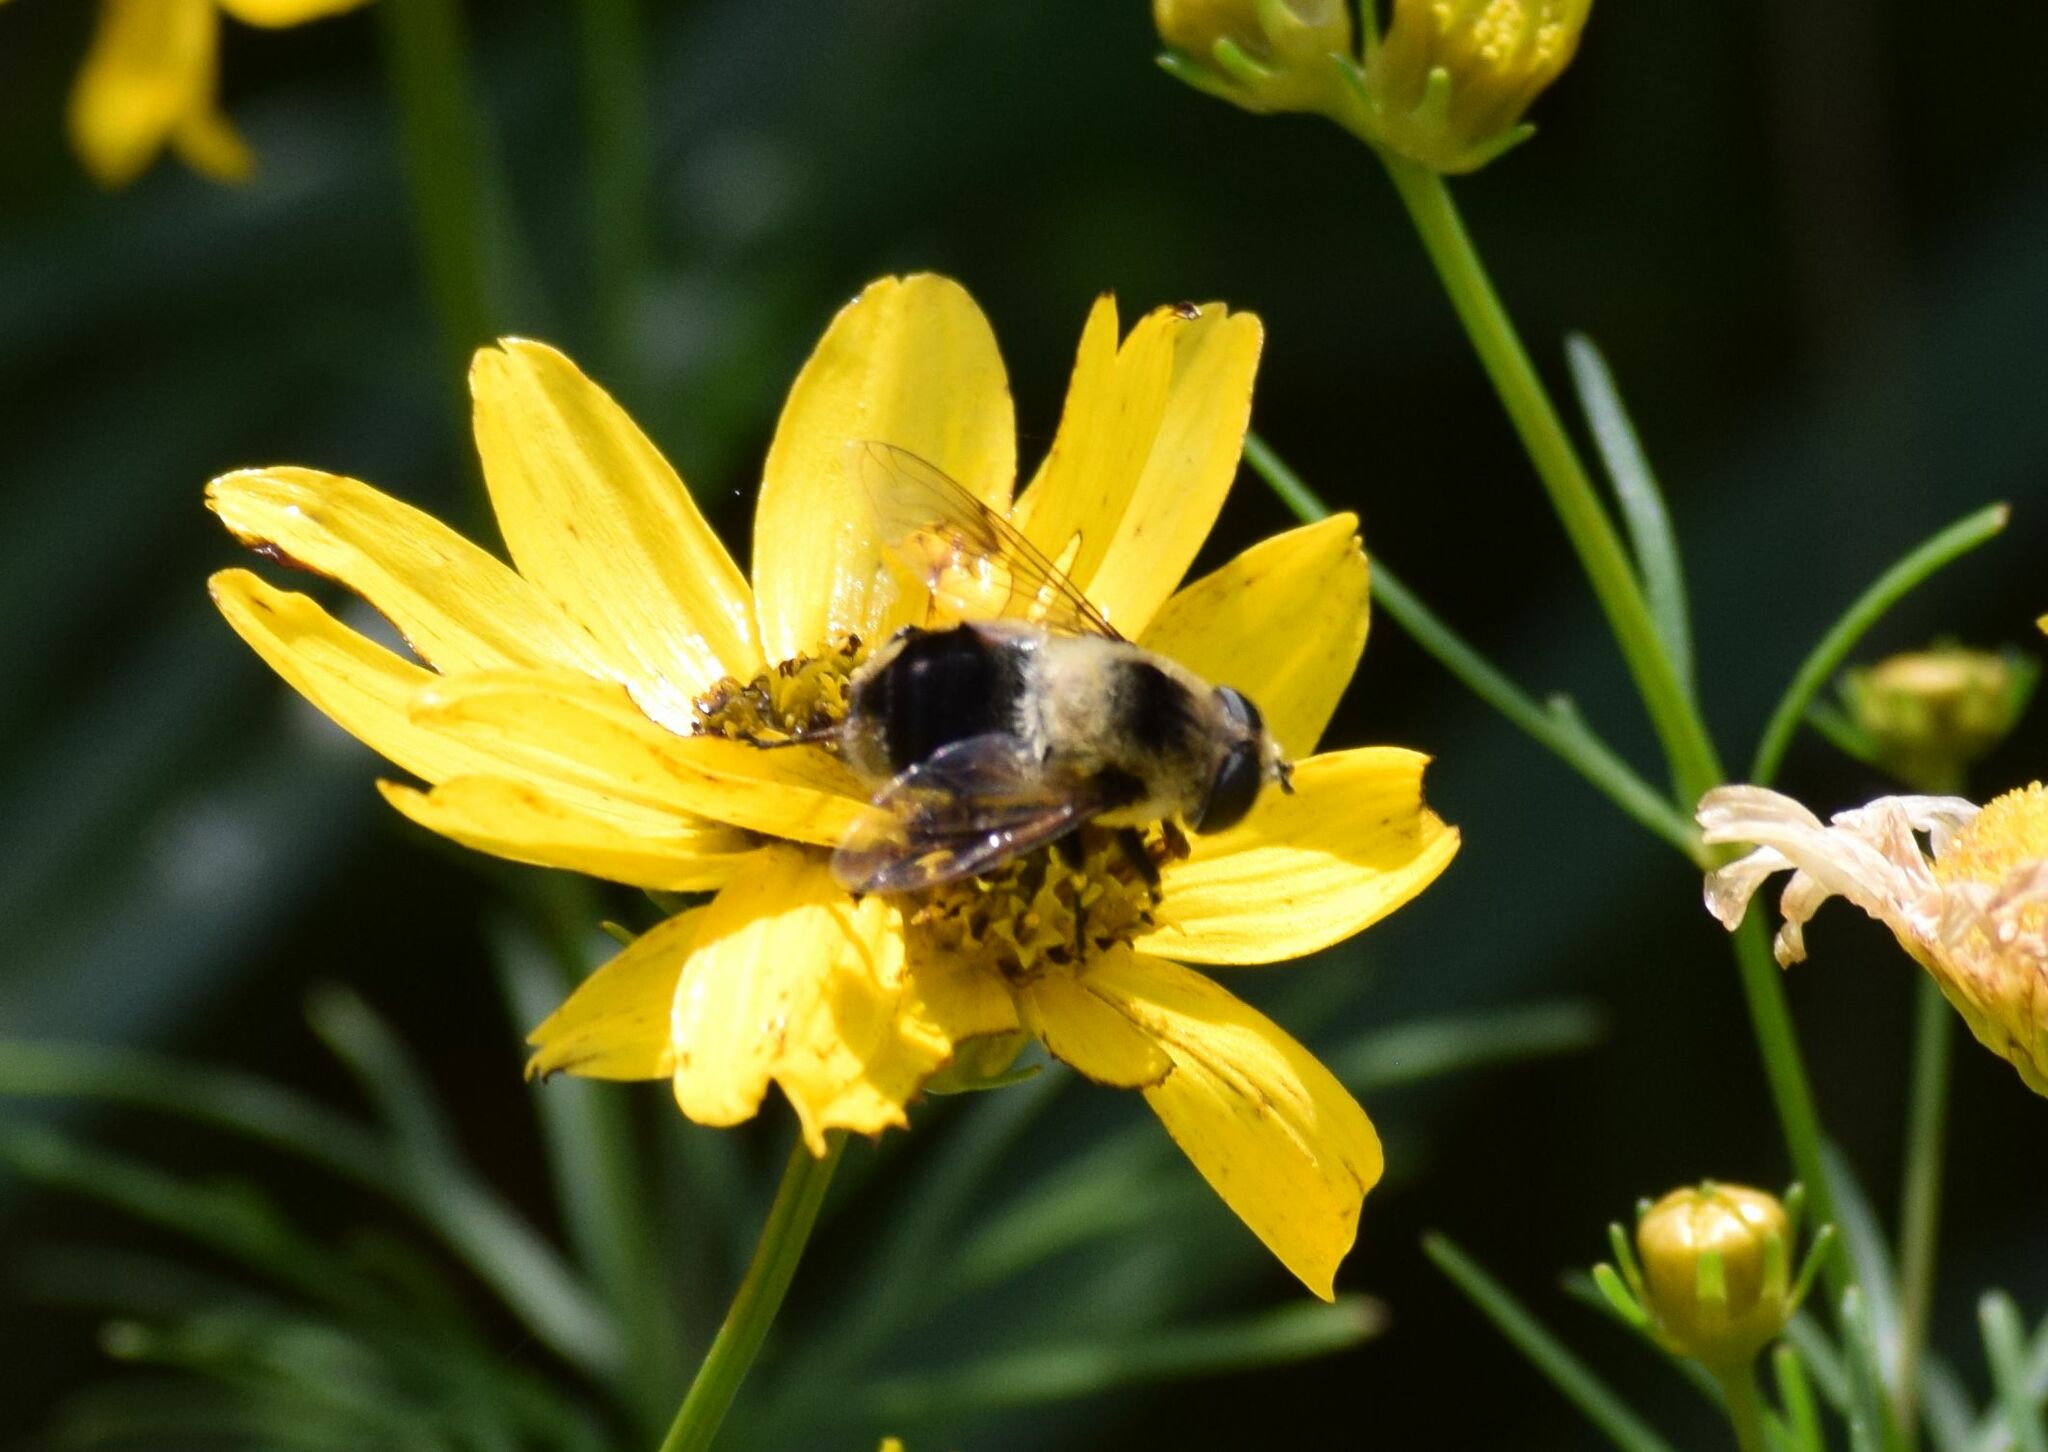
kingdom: Animalia
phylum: Arthropoda
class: Insecta
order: Diptera
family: Syrphidae
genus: Eristalis
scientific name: Eristalis anthophorina
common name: Orange-spotted drone fly
